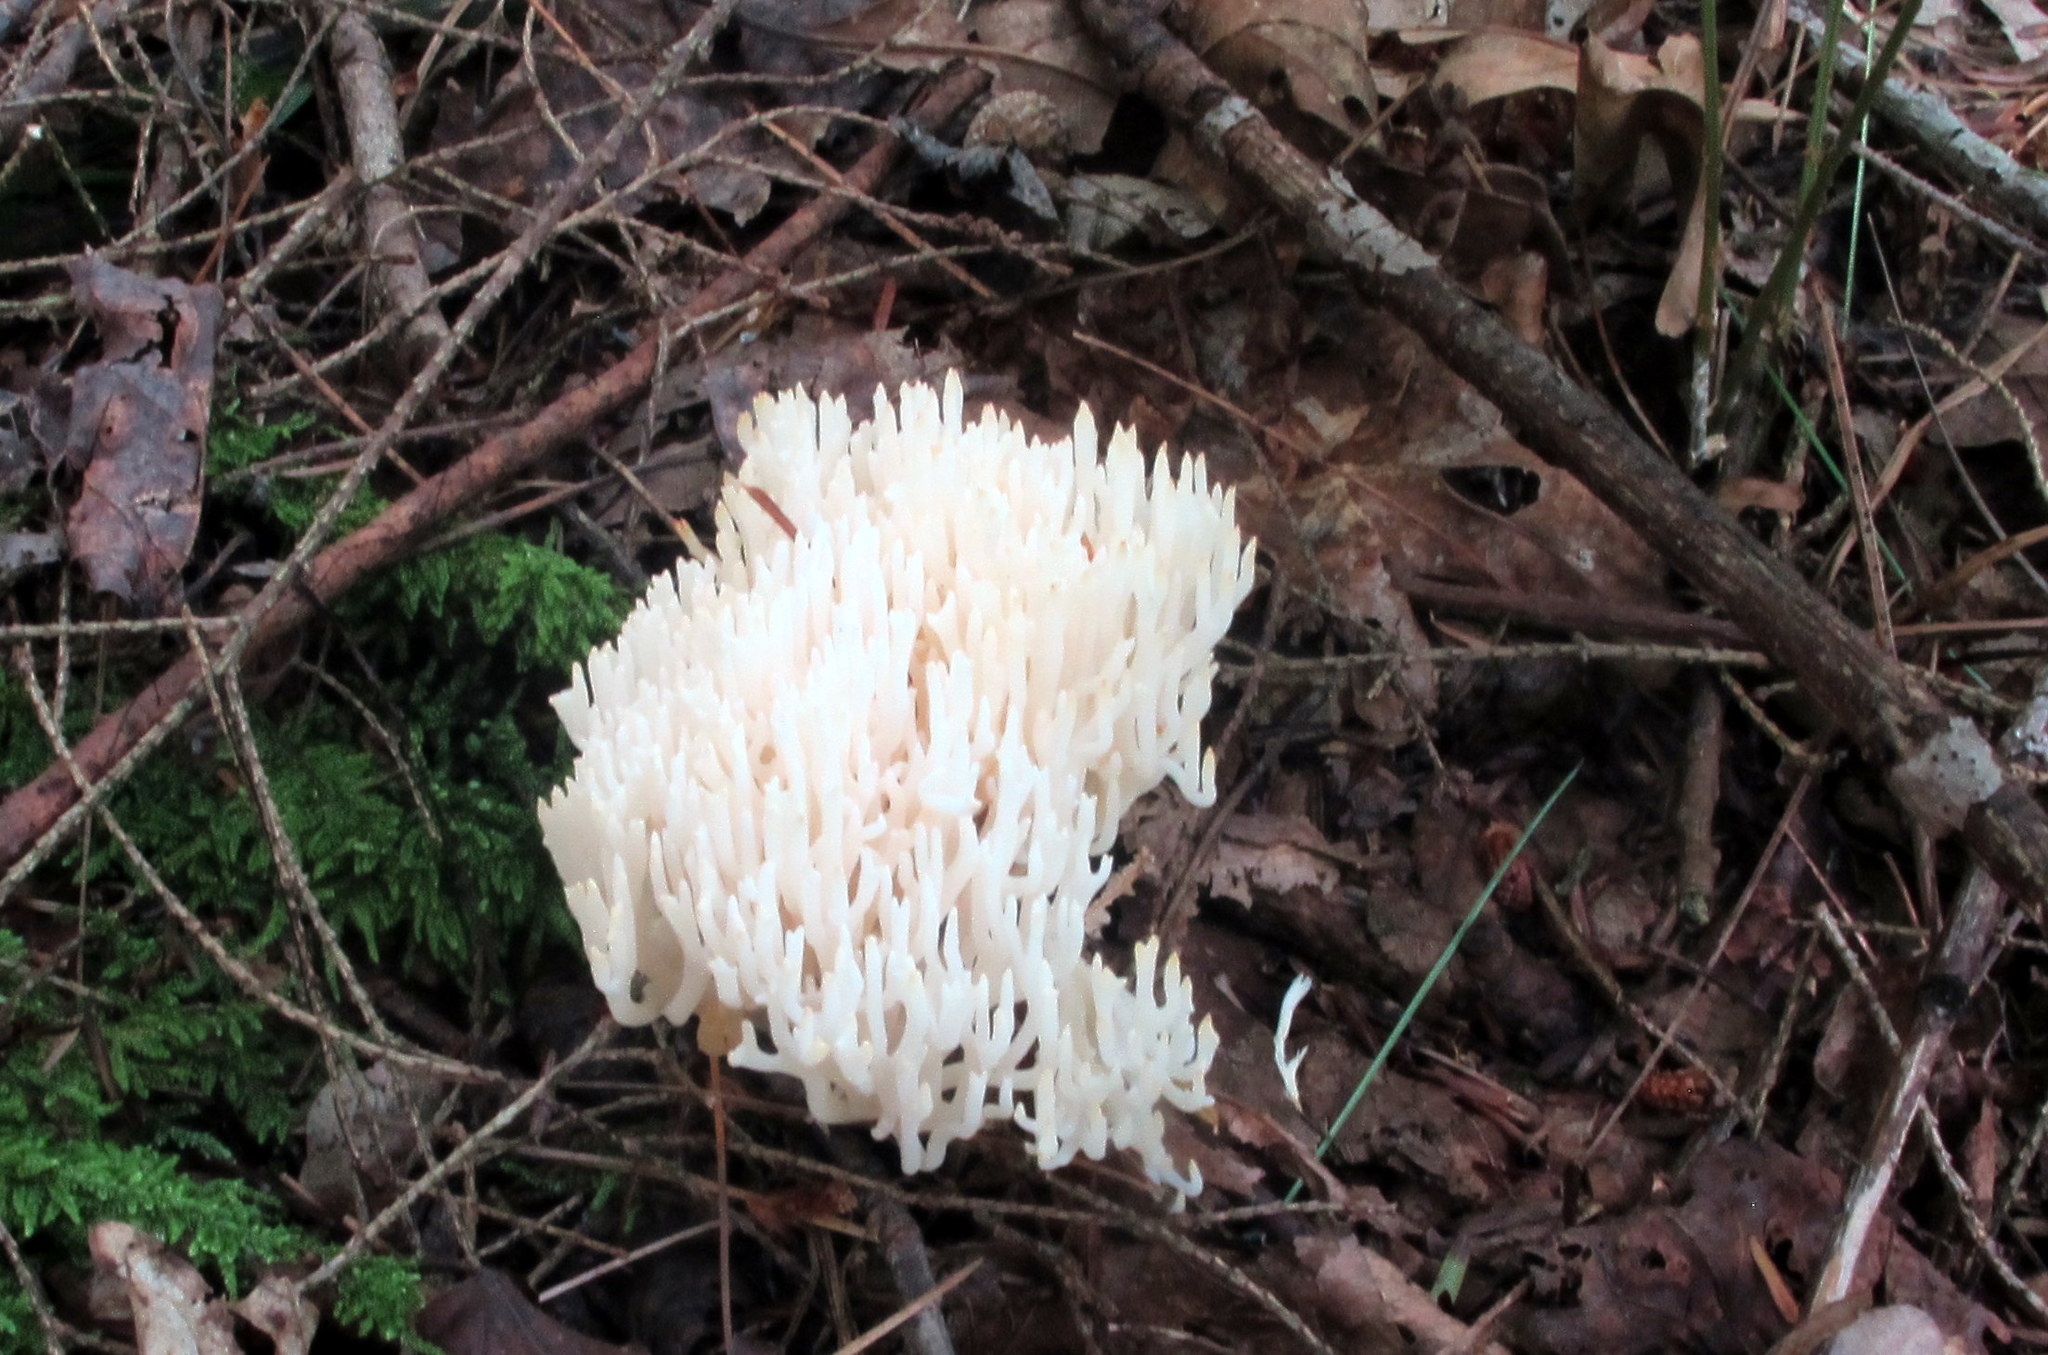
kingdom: Fungi
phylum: Basidiomycota
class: Agaricomycetes
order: Agaricales
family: Clavariaceae
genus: Ramariopsis
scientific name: Ramariopsis kunzei
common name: Ivory coral
